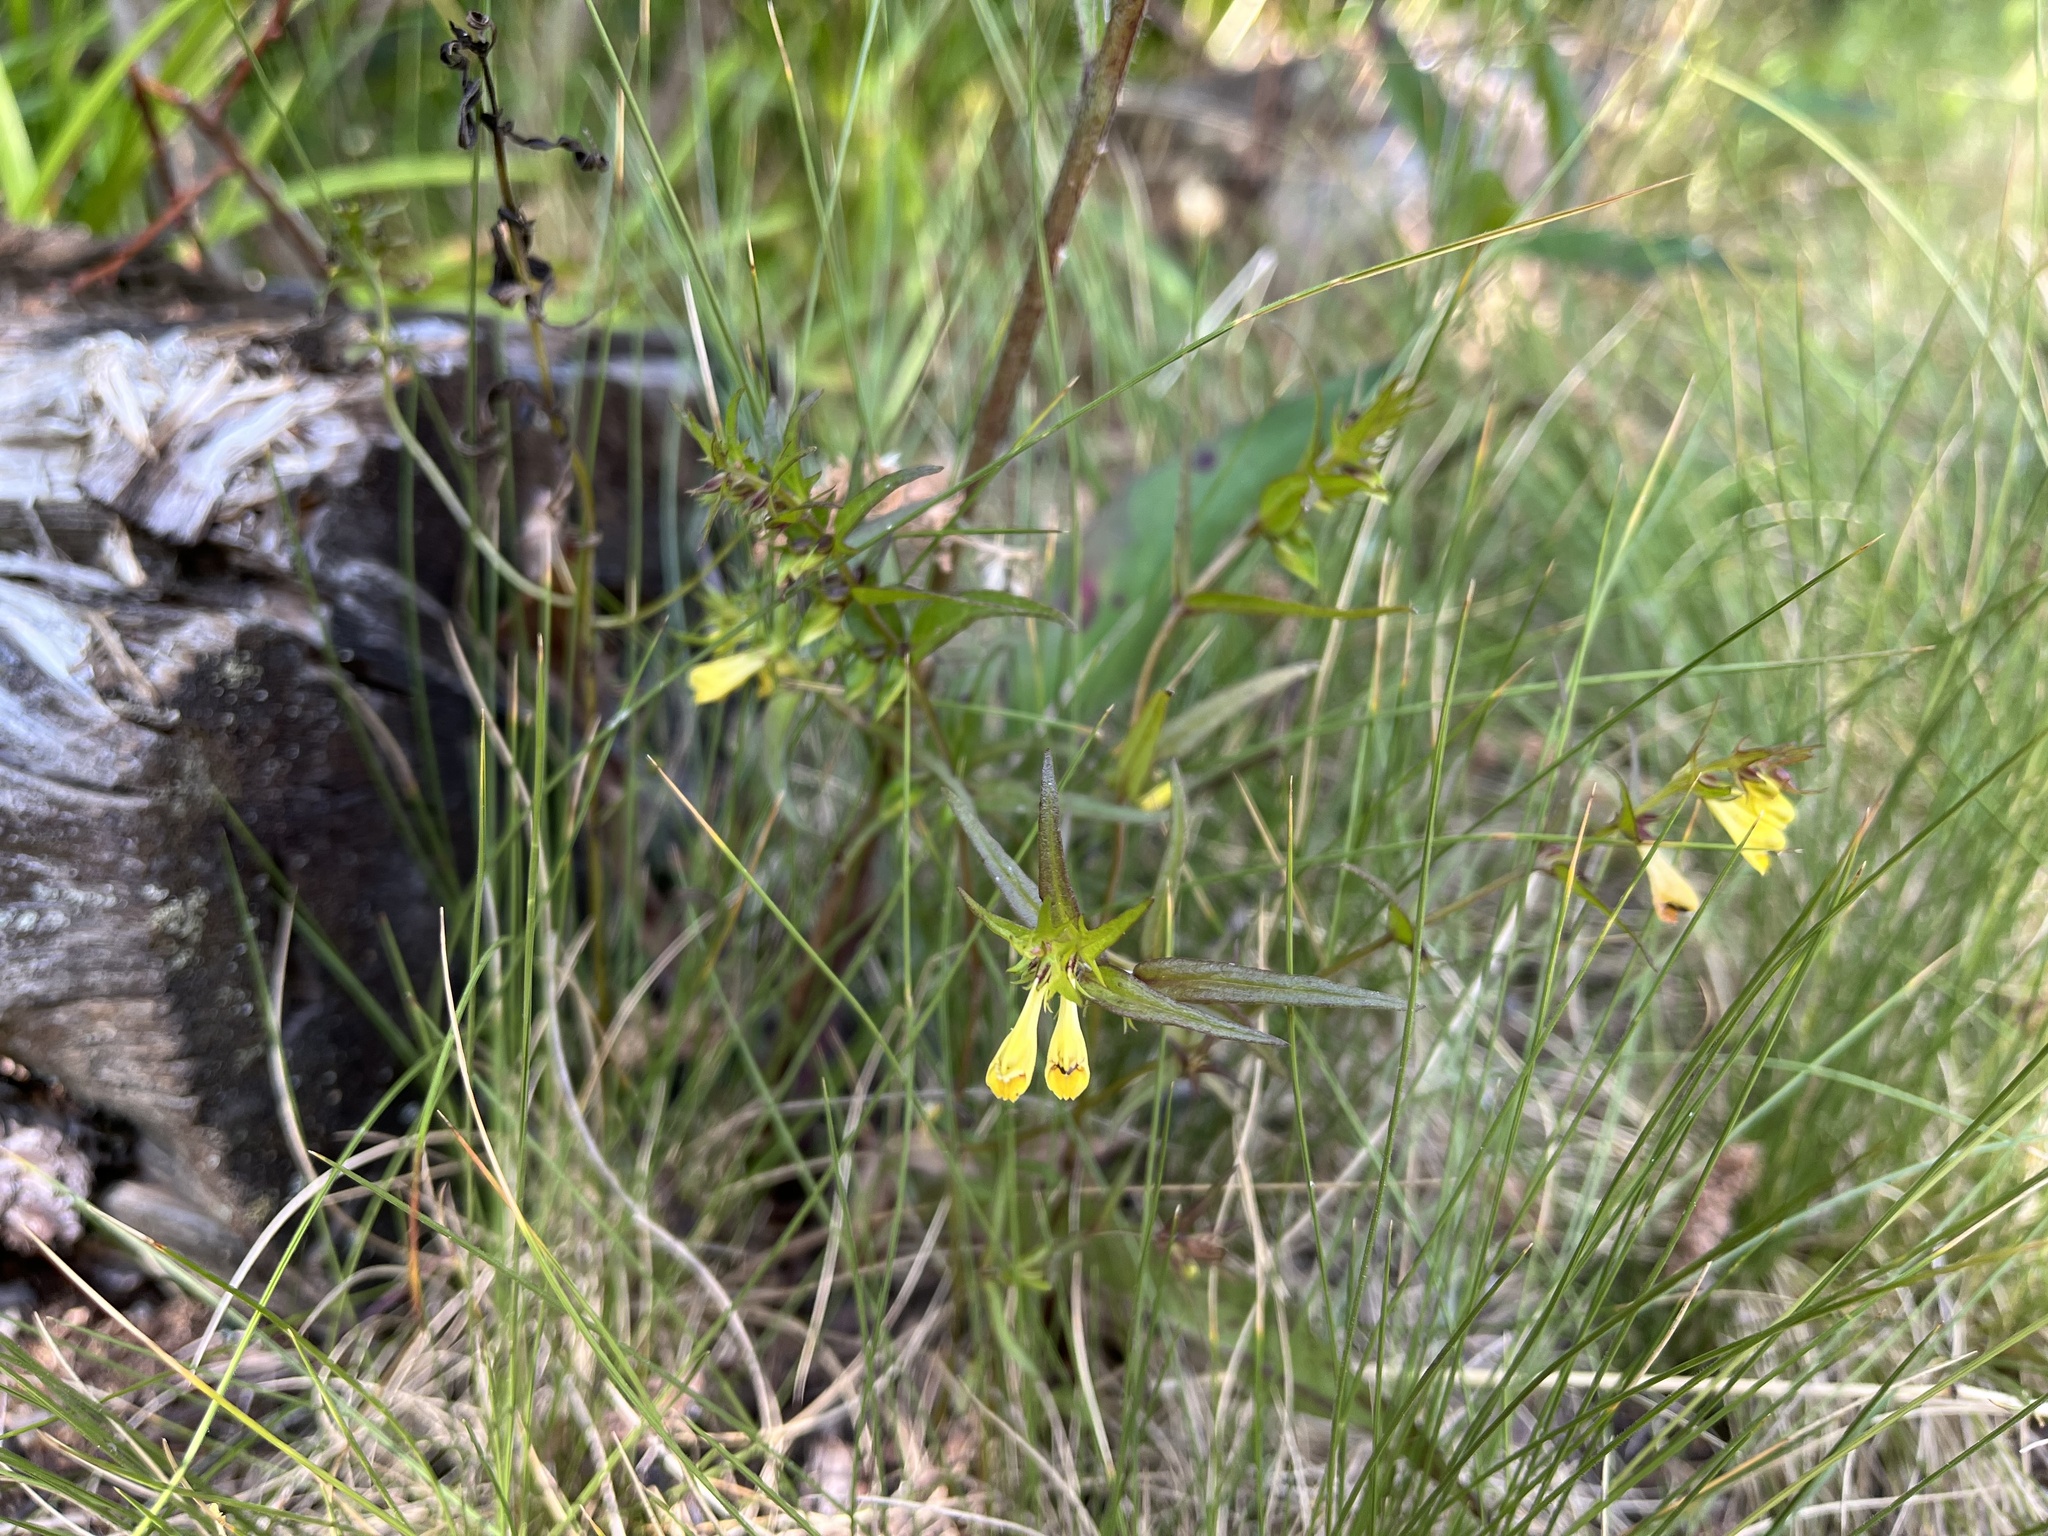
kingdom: Plantae
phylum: Tracheophyta
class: Magnoliopsida
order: Lamiales
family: Orobanchaceae
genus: Melampyrum
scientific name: Melampyrum pratense
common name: Common cow-wheat
